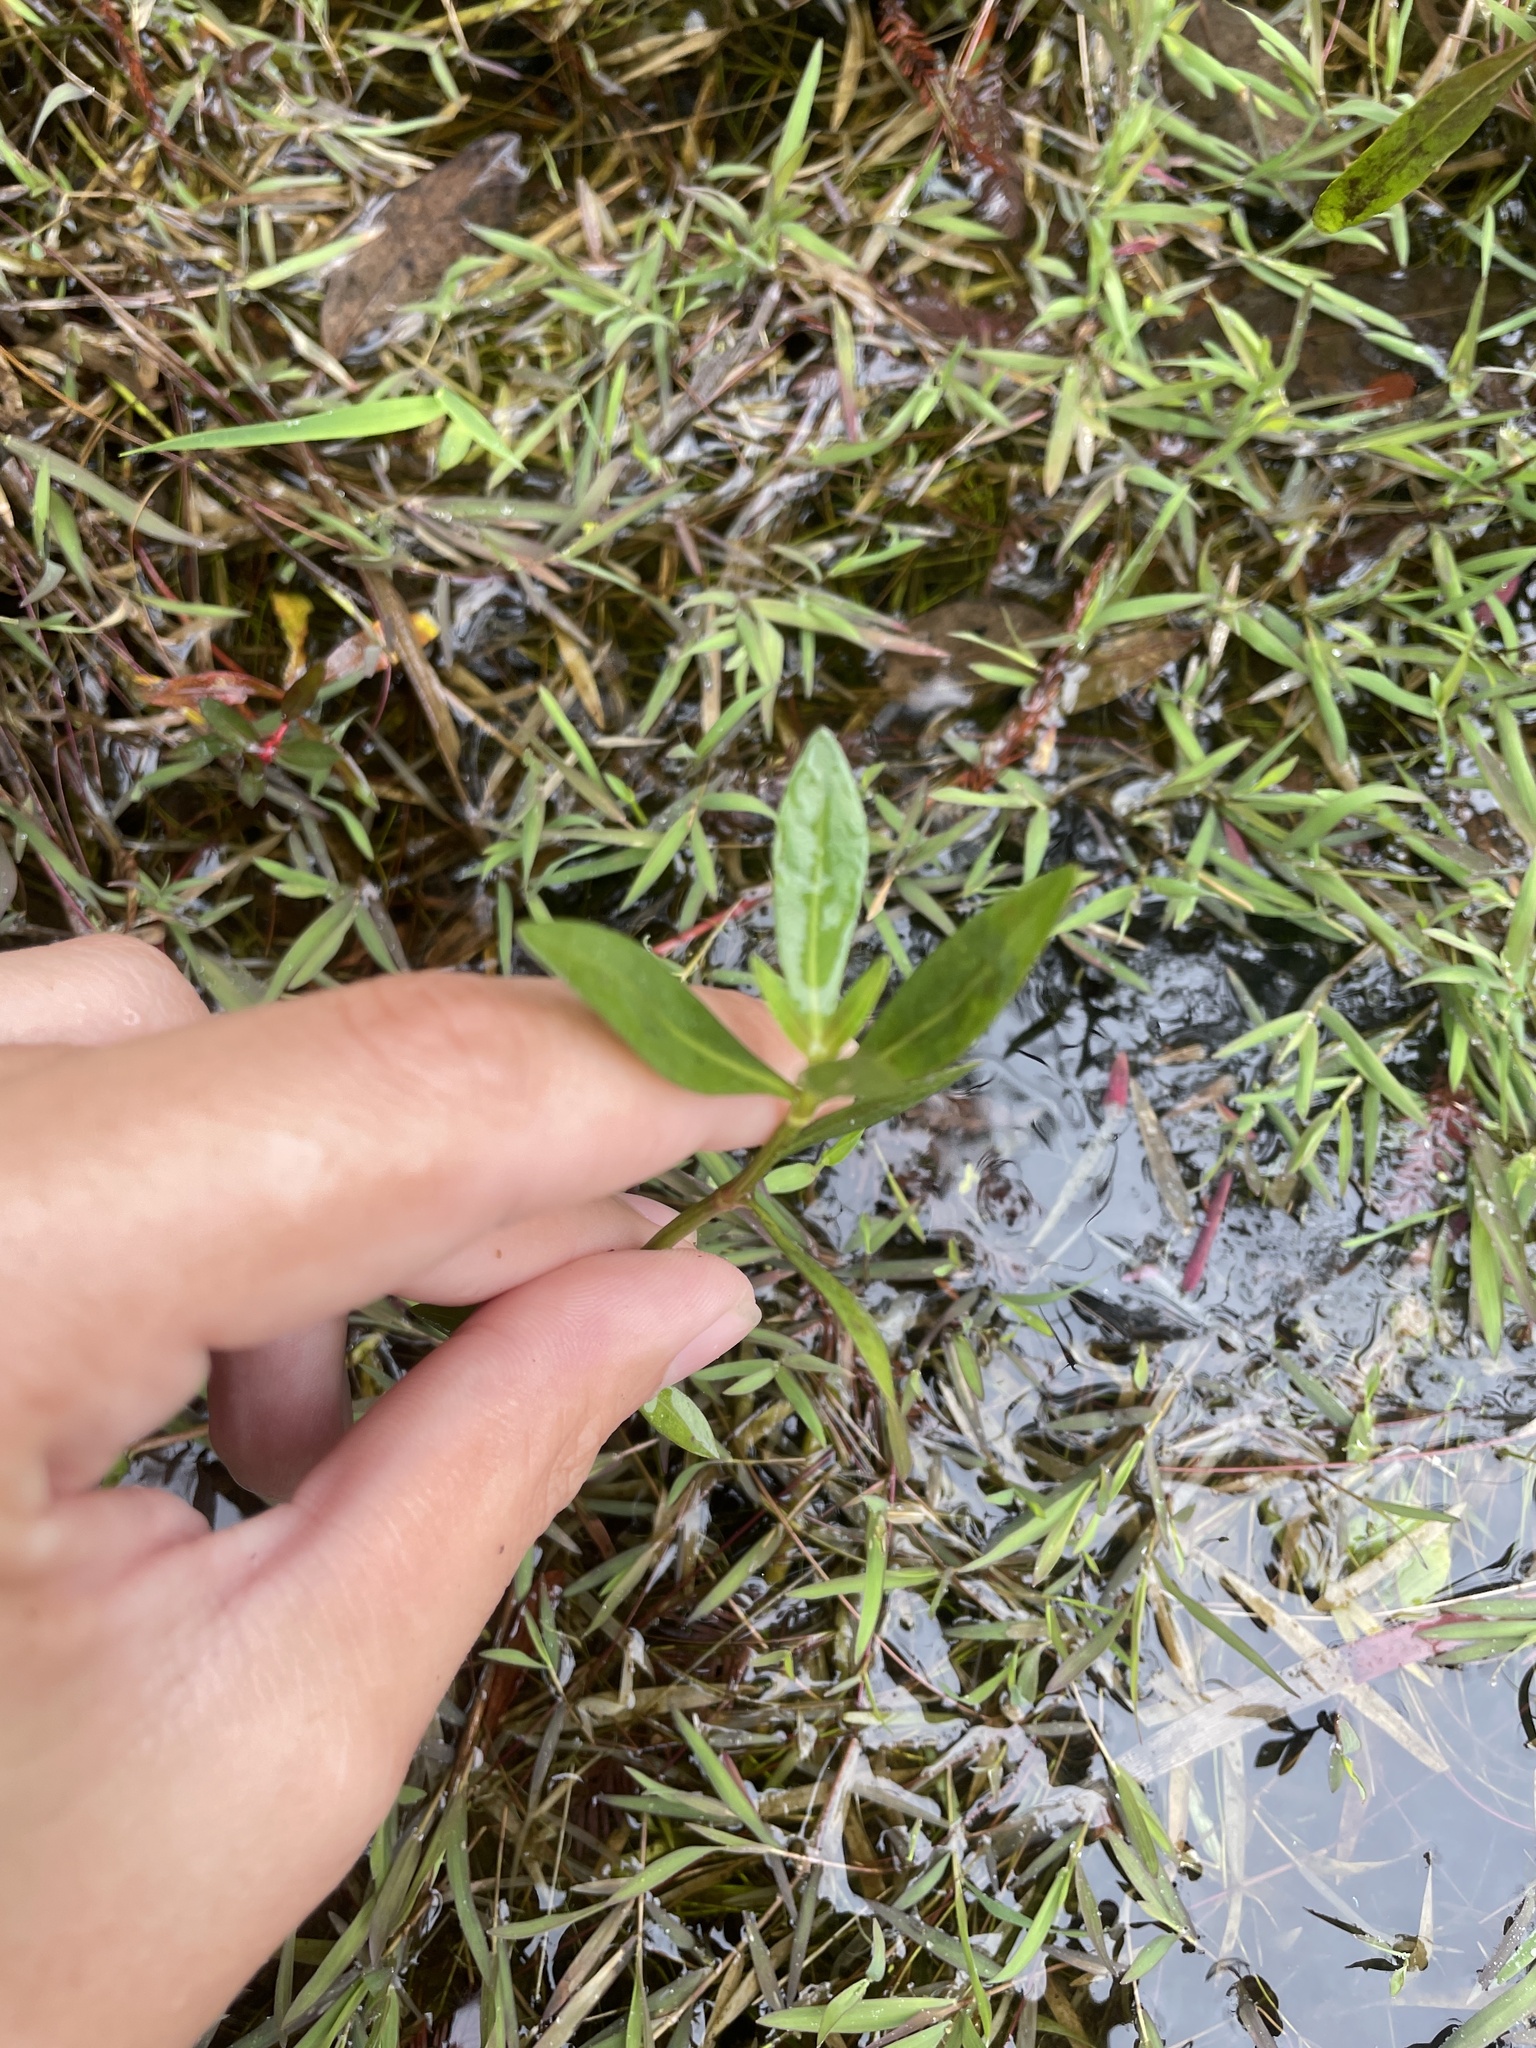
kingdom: Plantae
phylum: Tracheophyta
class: Magnoliopsida
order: Caryophyllales
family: Amaranthaceae
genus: Alternanthera
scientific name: Alternanthera philoxeroides
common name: Alligatorweed
